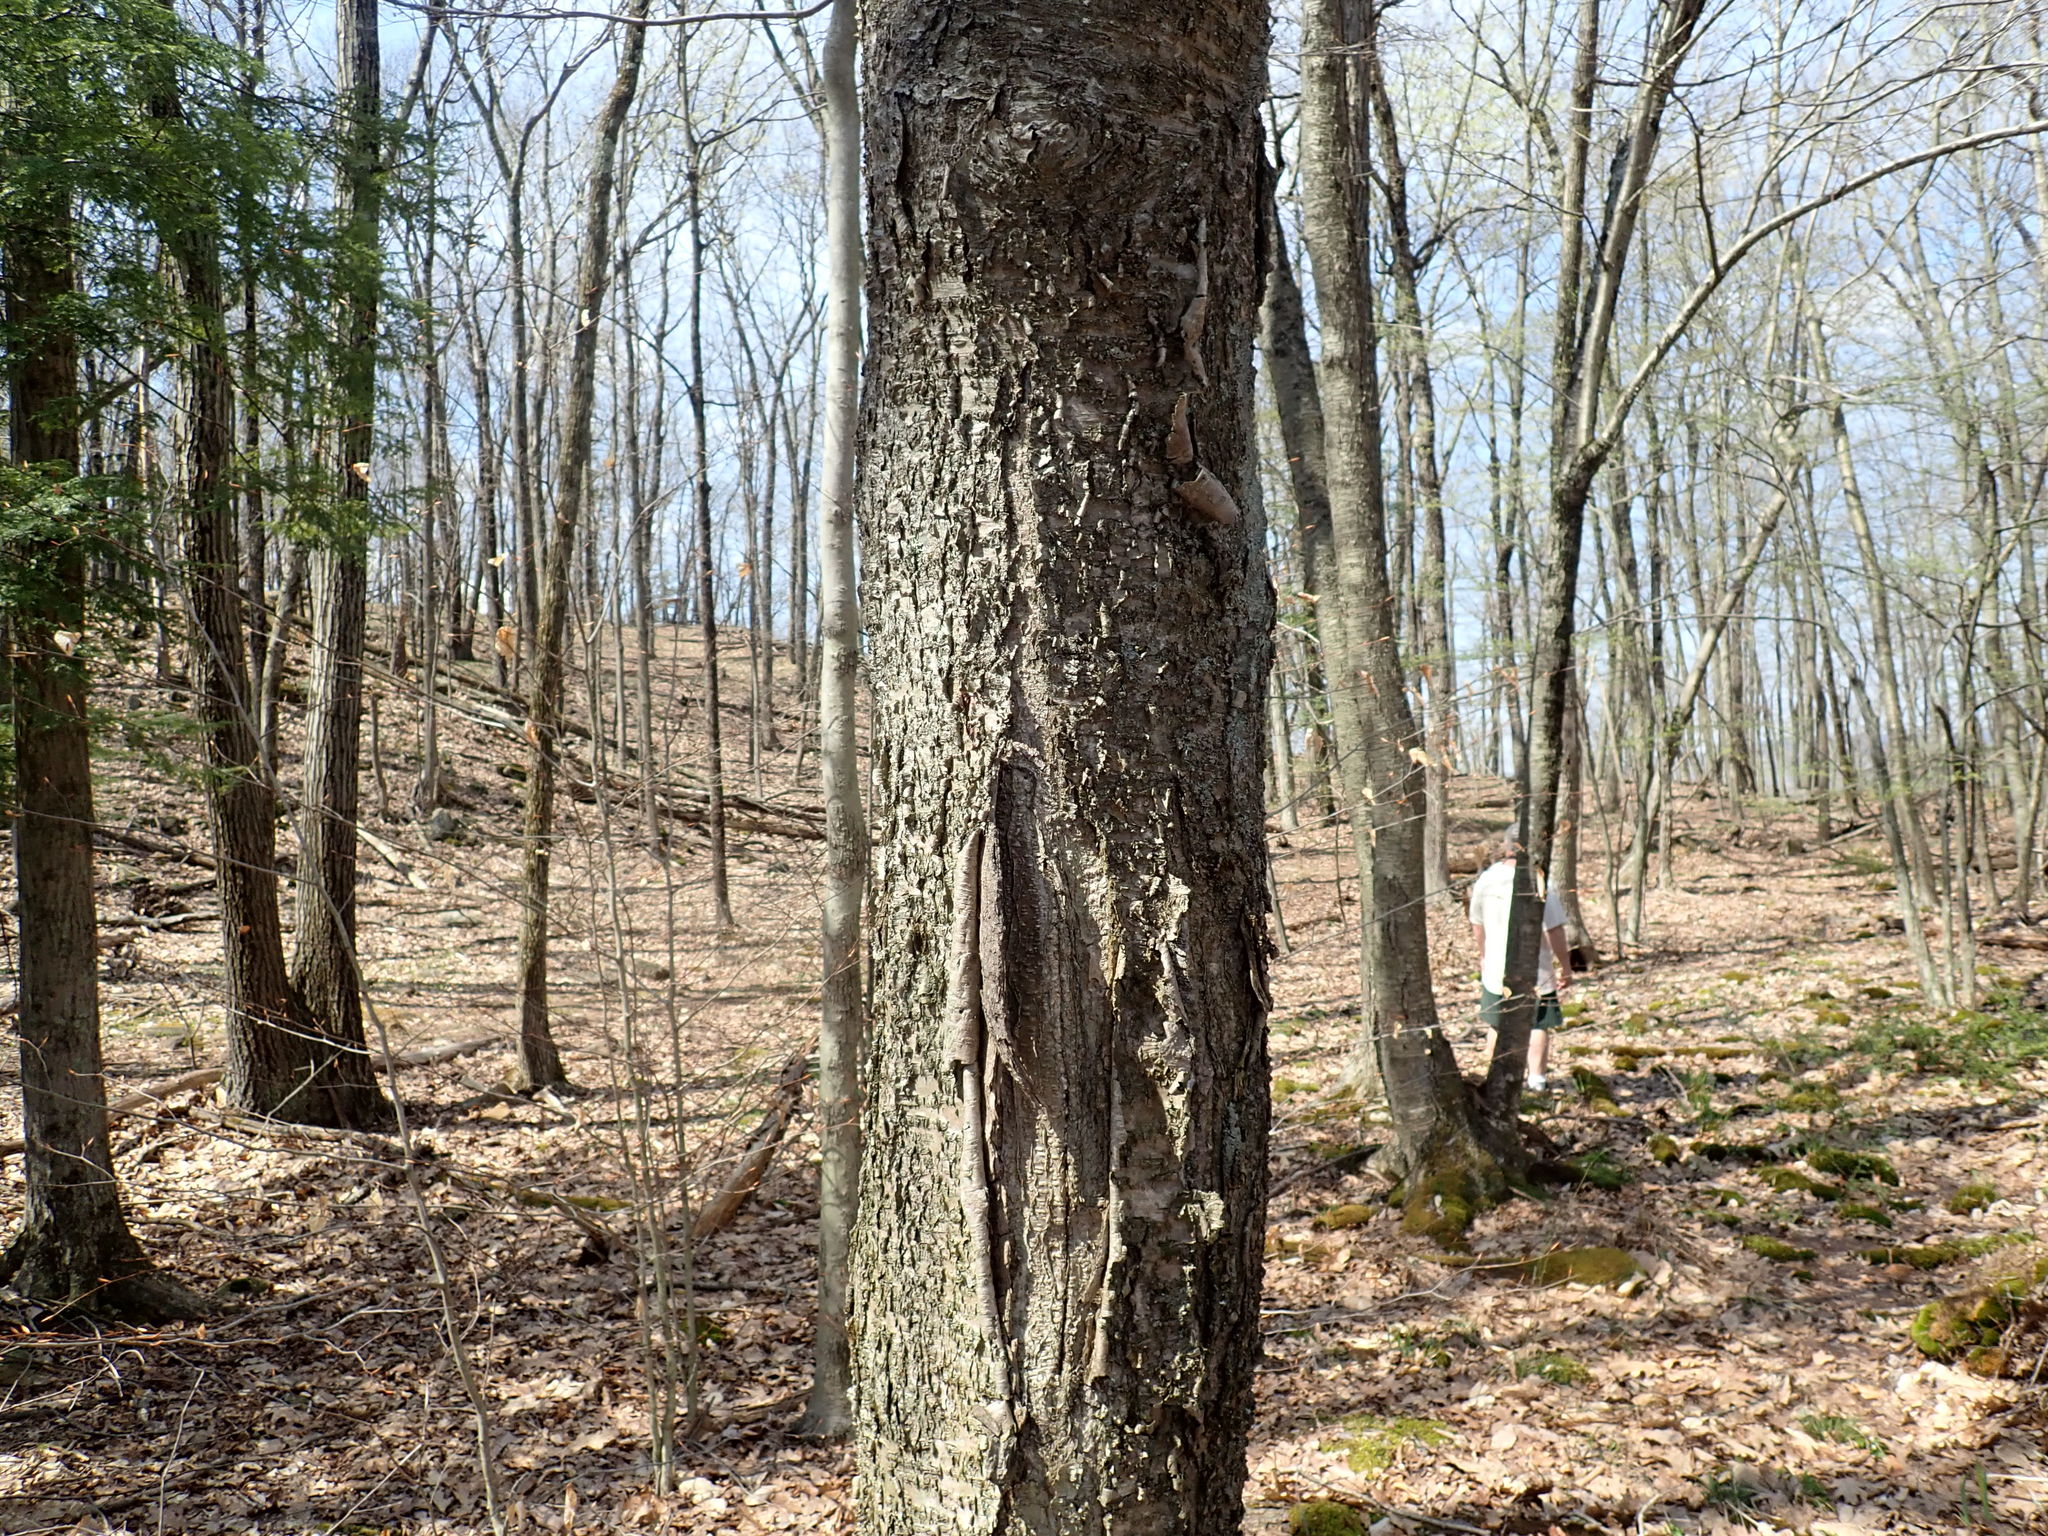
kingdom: Plantae
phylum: Tracheophyta
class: Magnoliopsida
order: Fagales
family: Betulaceae
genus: Betula
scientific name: Betula alleghaniensis
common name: Yellow birch
